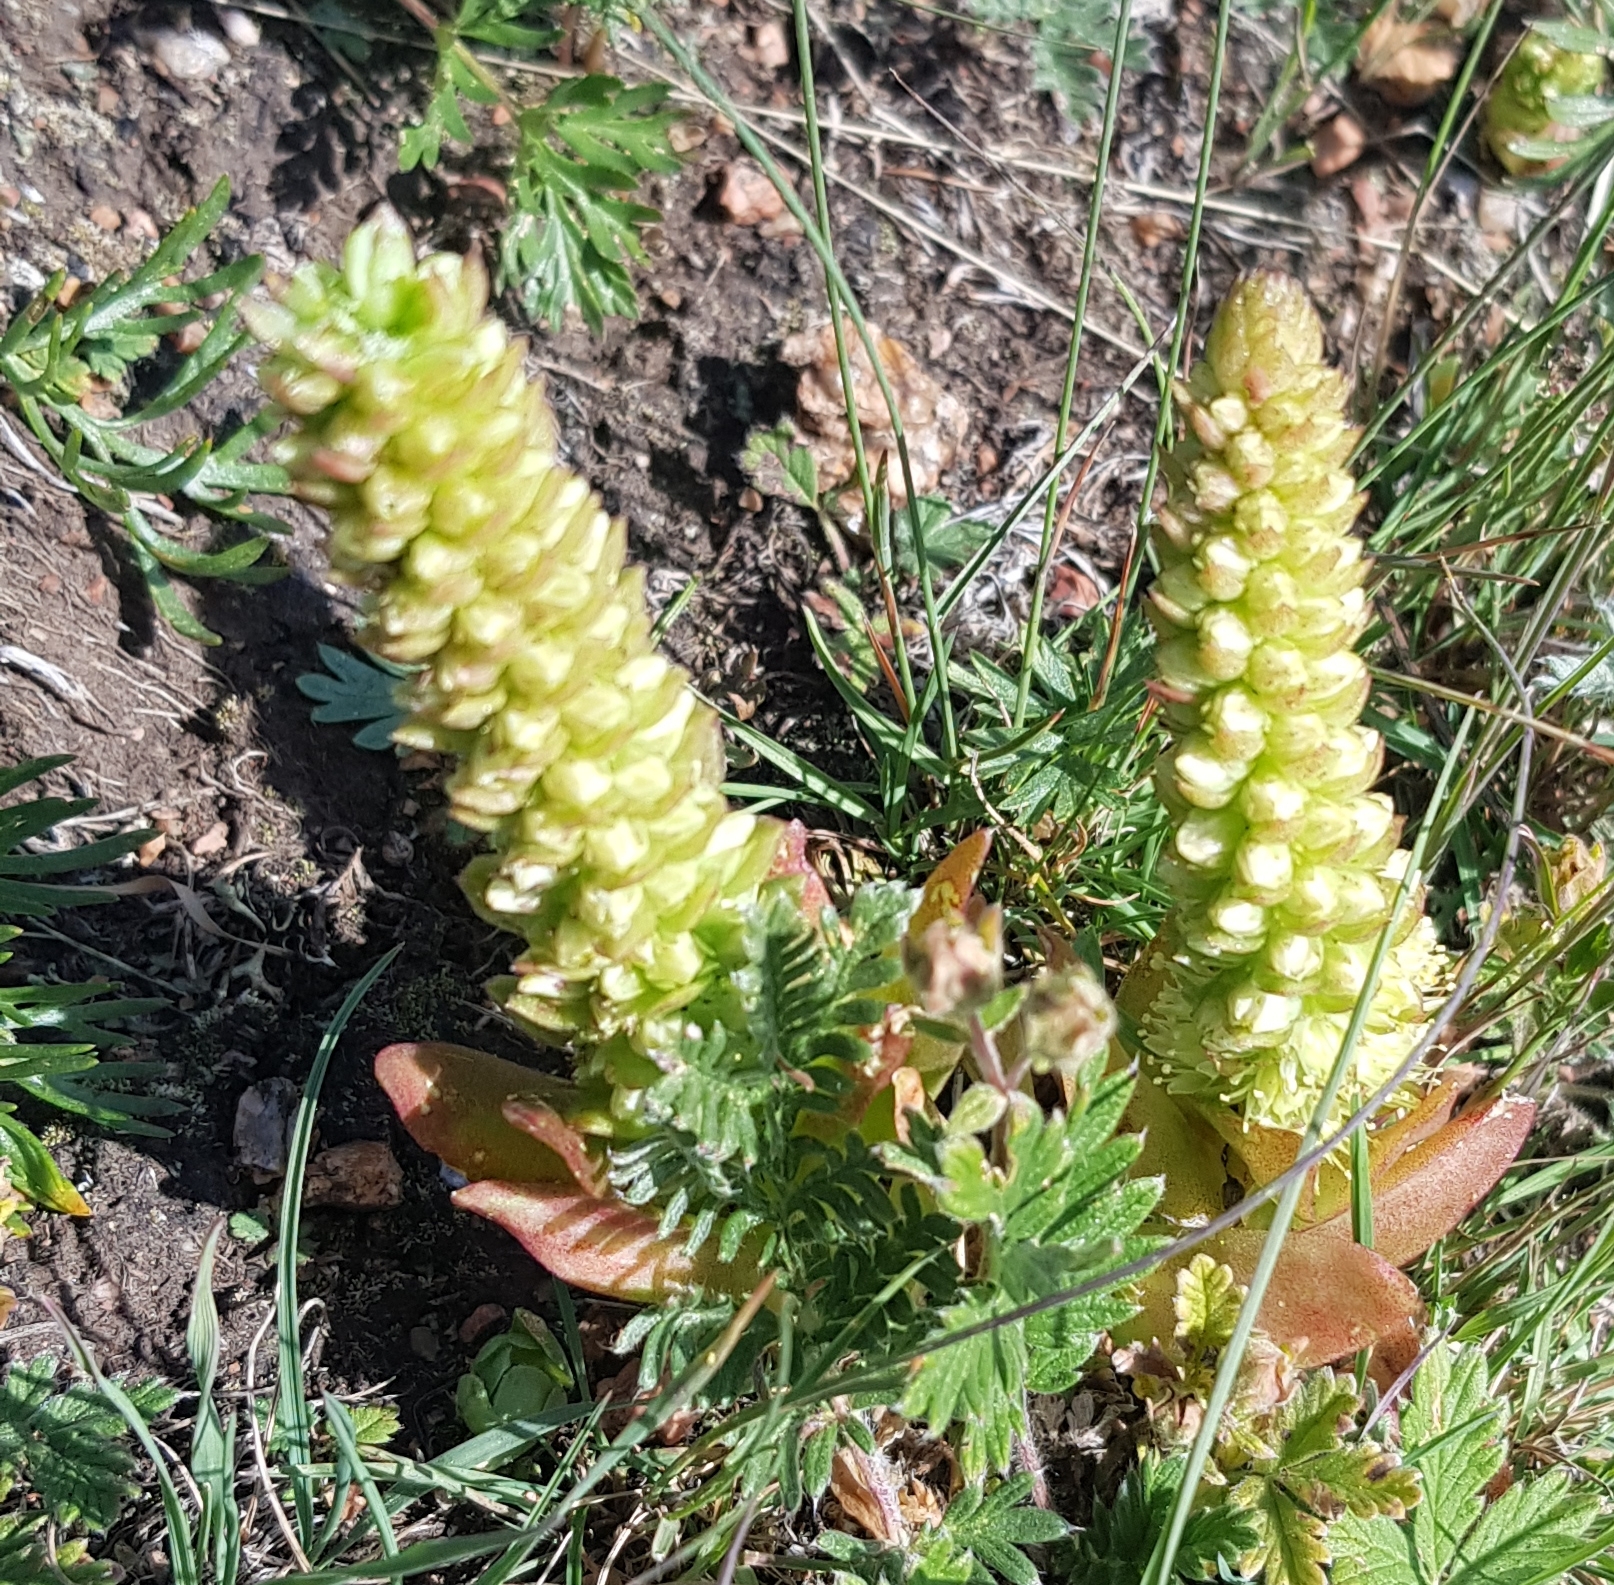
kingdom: Plantae
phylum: Tracheophyta
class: Magnoliopsida
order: Saxifragales
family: Crassulaceae
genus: Orostachys
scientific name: Orostachys malacophylla
